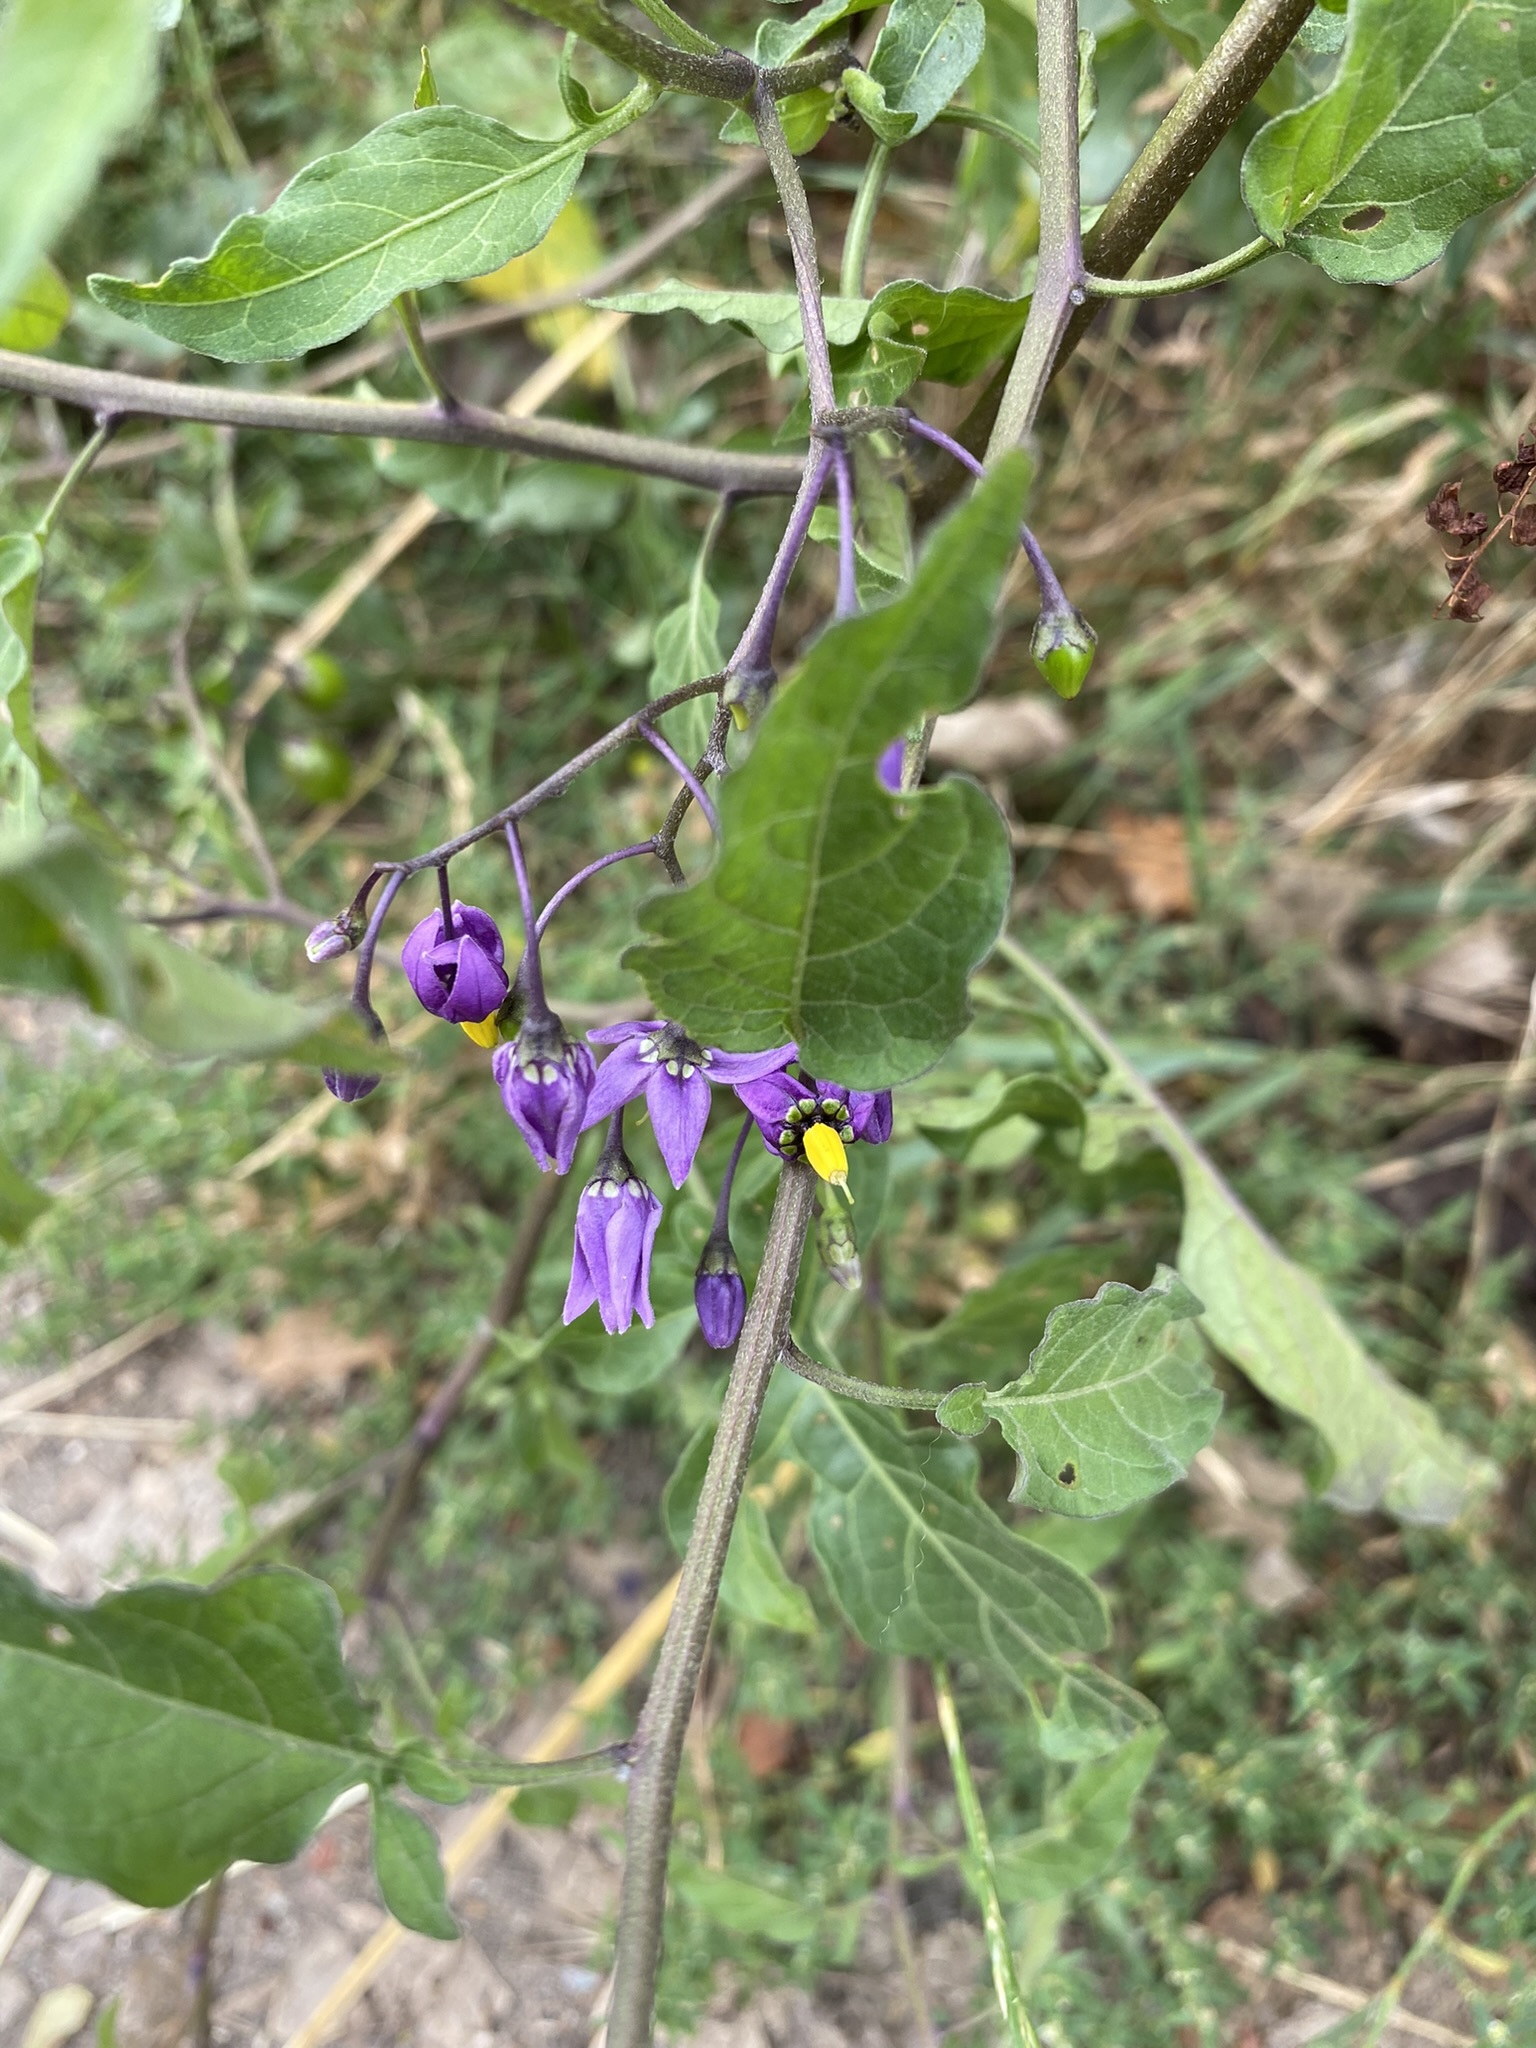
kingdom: Plantae
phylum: Tracheophyta
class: Magnoliopsida
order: Solanales
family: Solanaceae
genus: Solanum
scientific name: Solanum dulcamara
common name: Climbing nightshade
